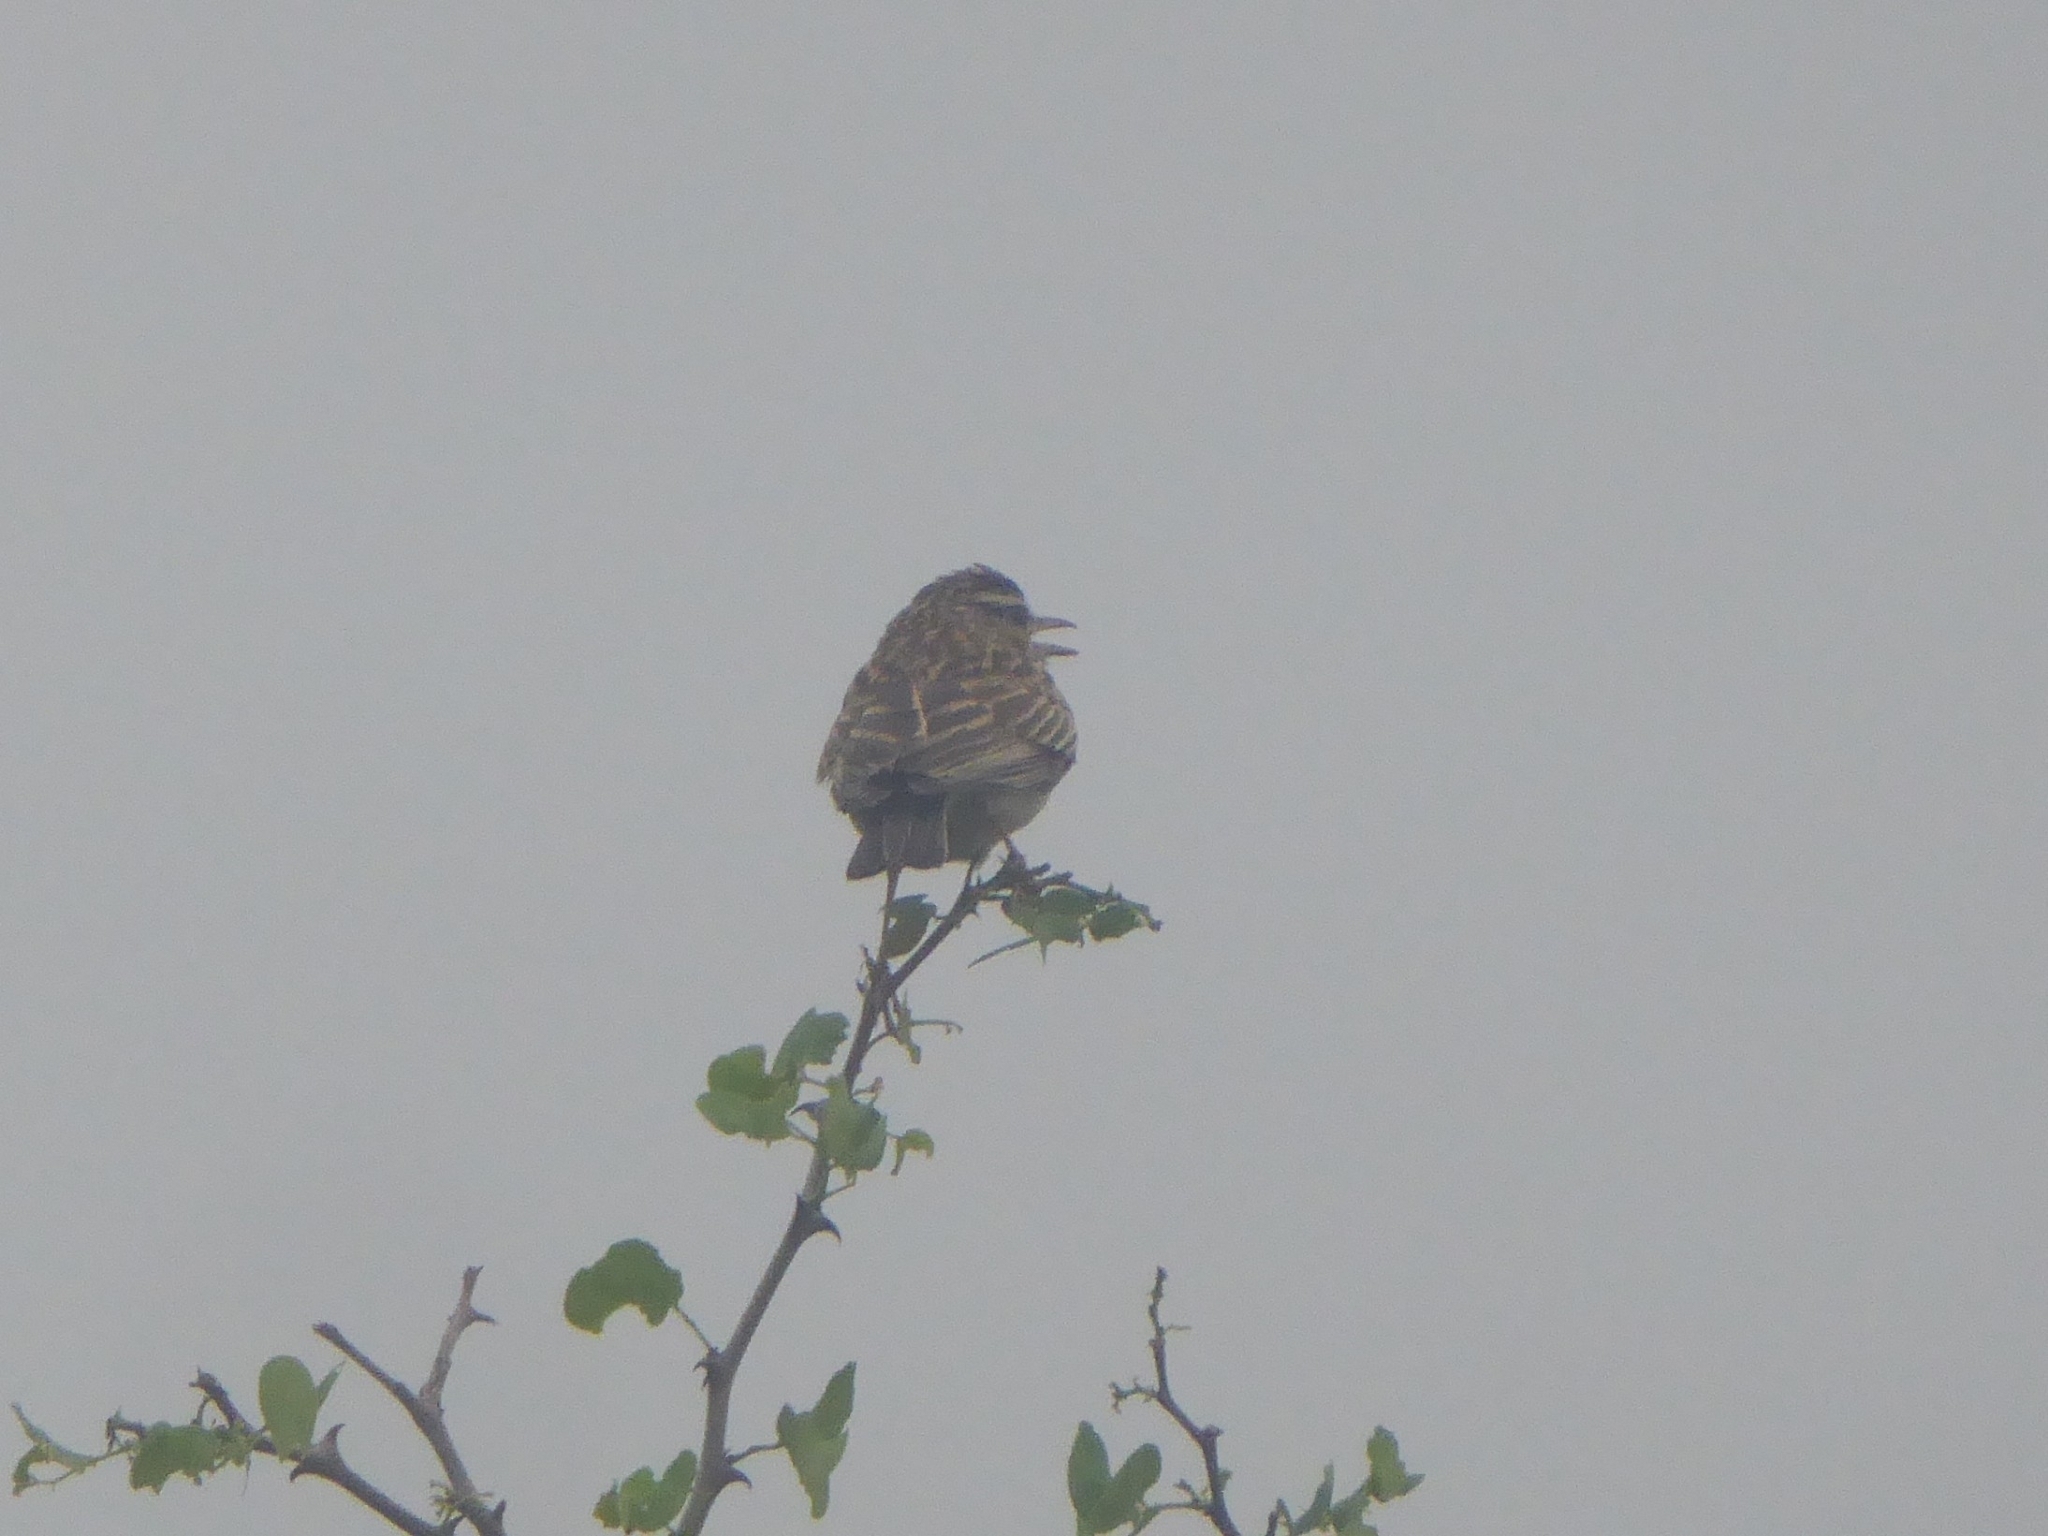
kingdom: Animalia
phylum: Chordata
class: Aves
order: Passeriformes
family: Alaudidae
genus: Calendulauda
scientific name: Calendulauda sabota
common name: Sabota lark
